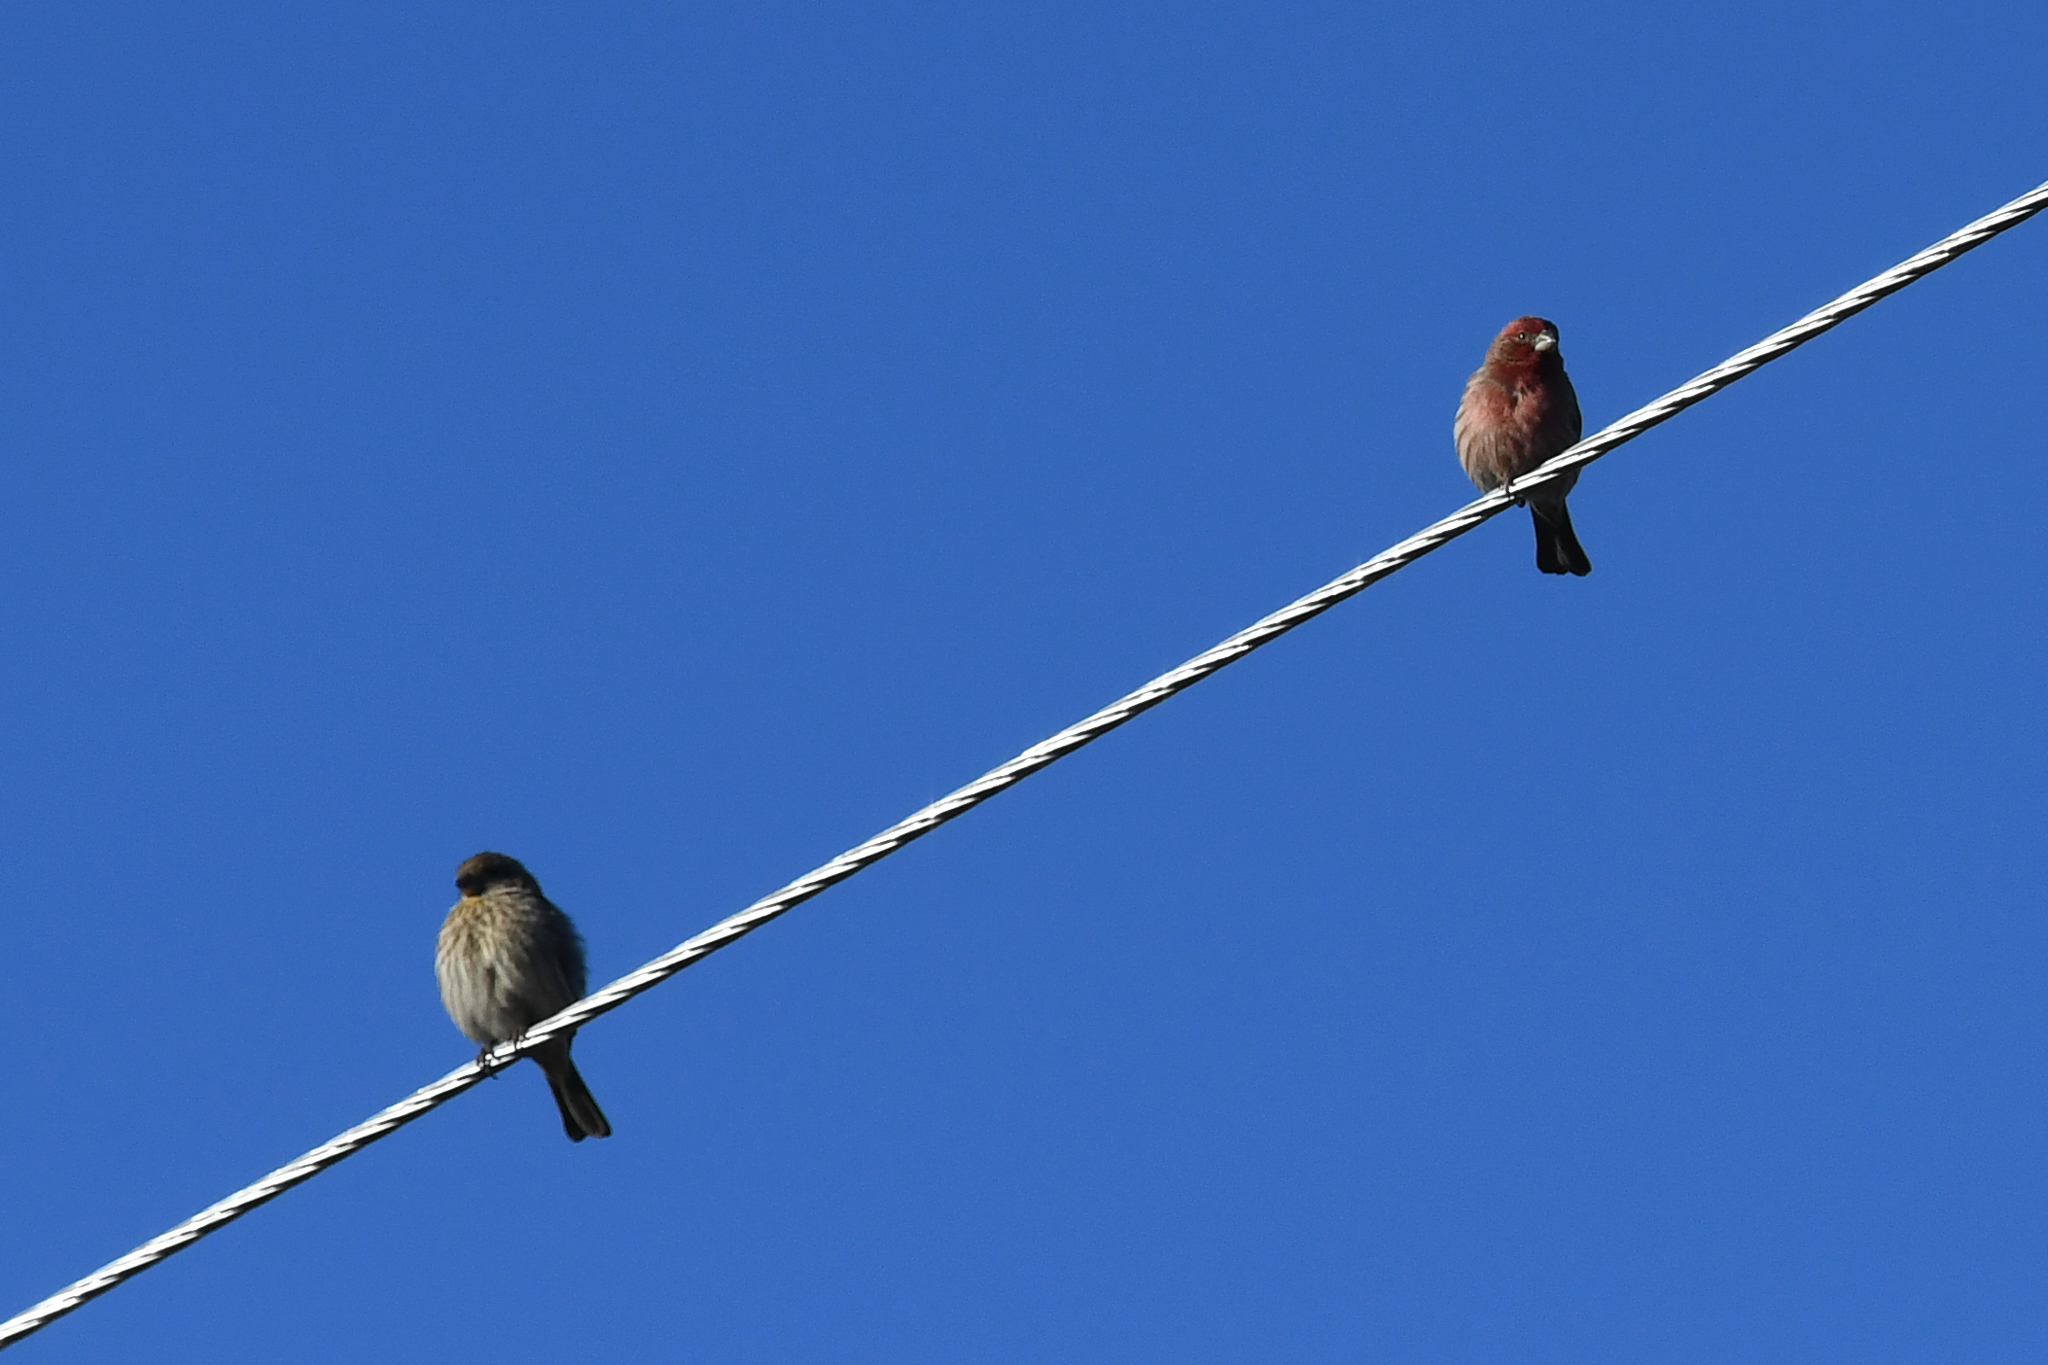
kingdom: Animalia
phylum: Chordata
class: Aves
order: Passeriformes
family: Fringillidae
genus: Haemorhous
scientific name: Haemorhous mexicanus
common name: House finch
